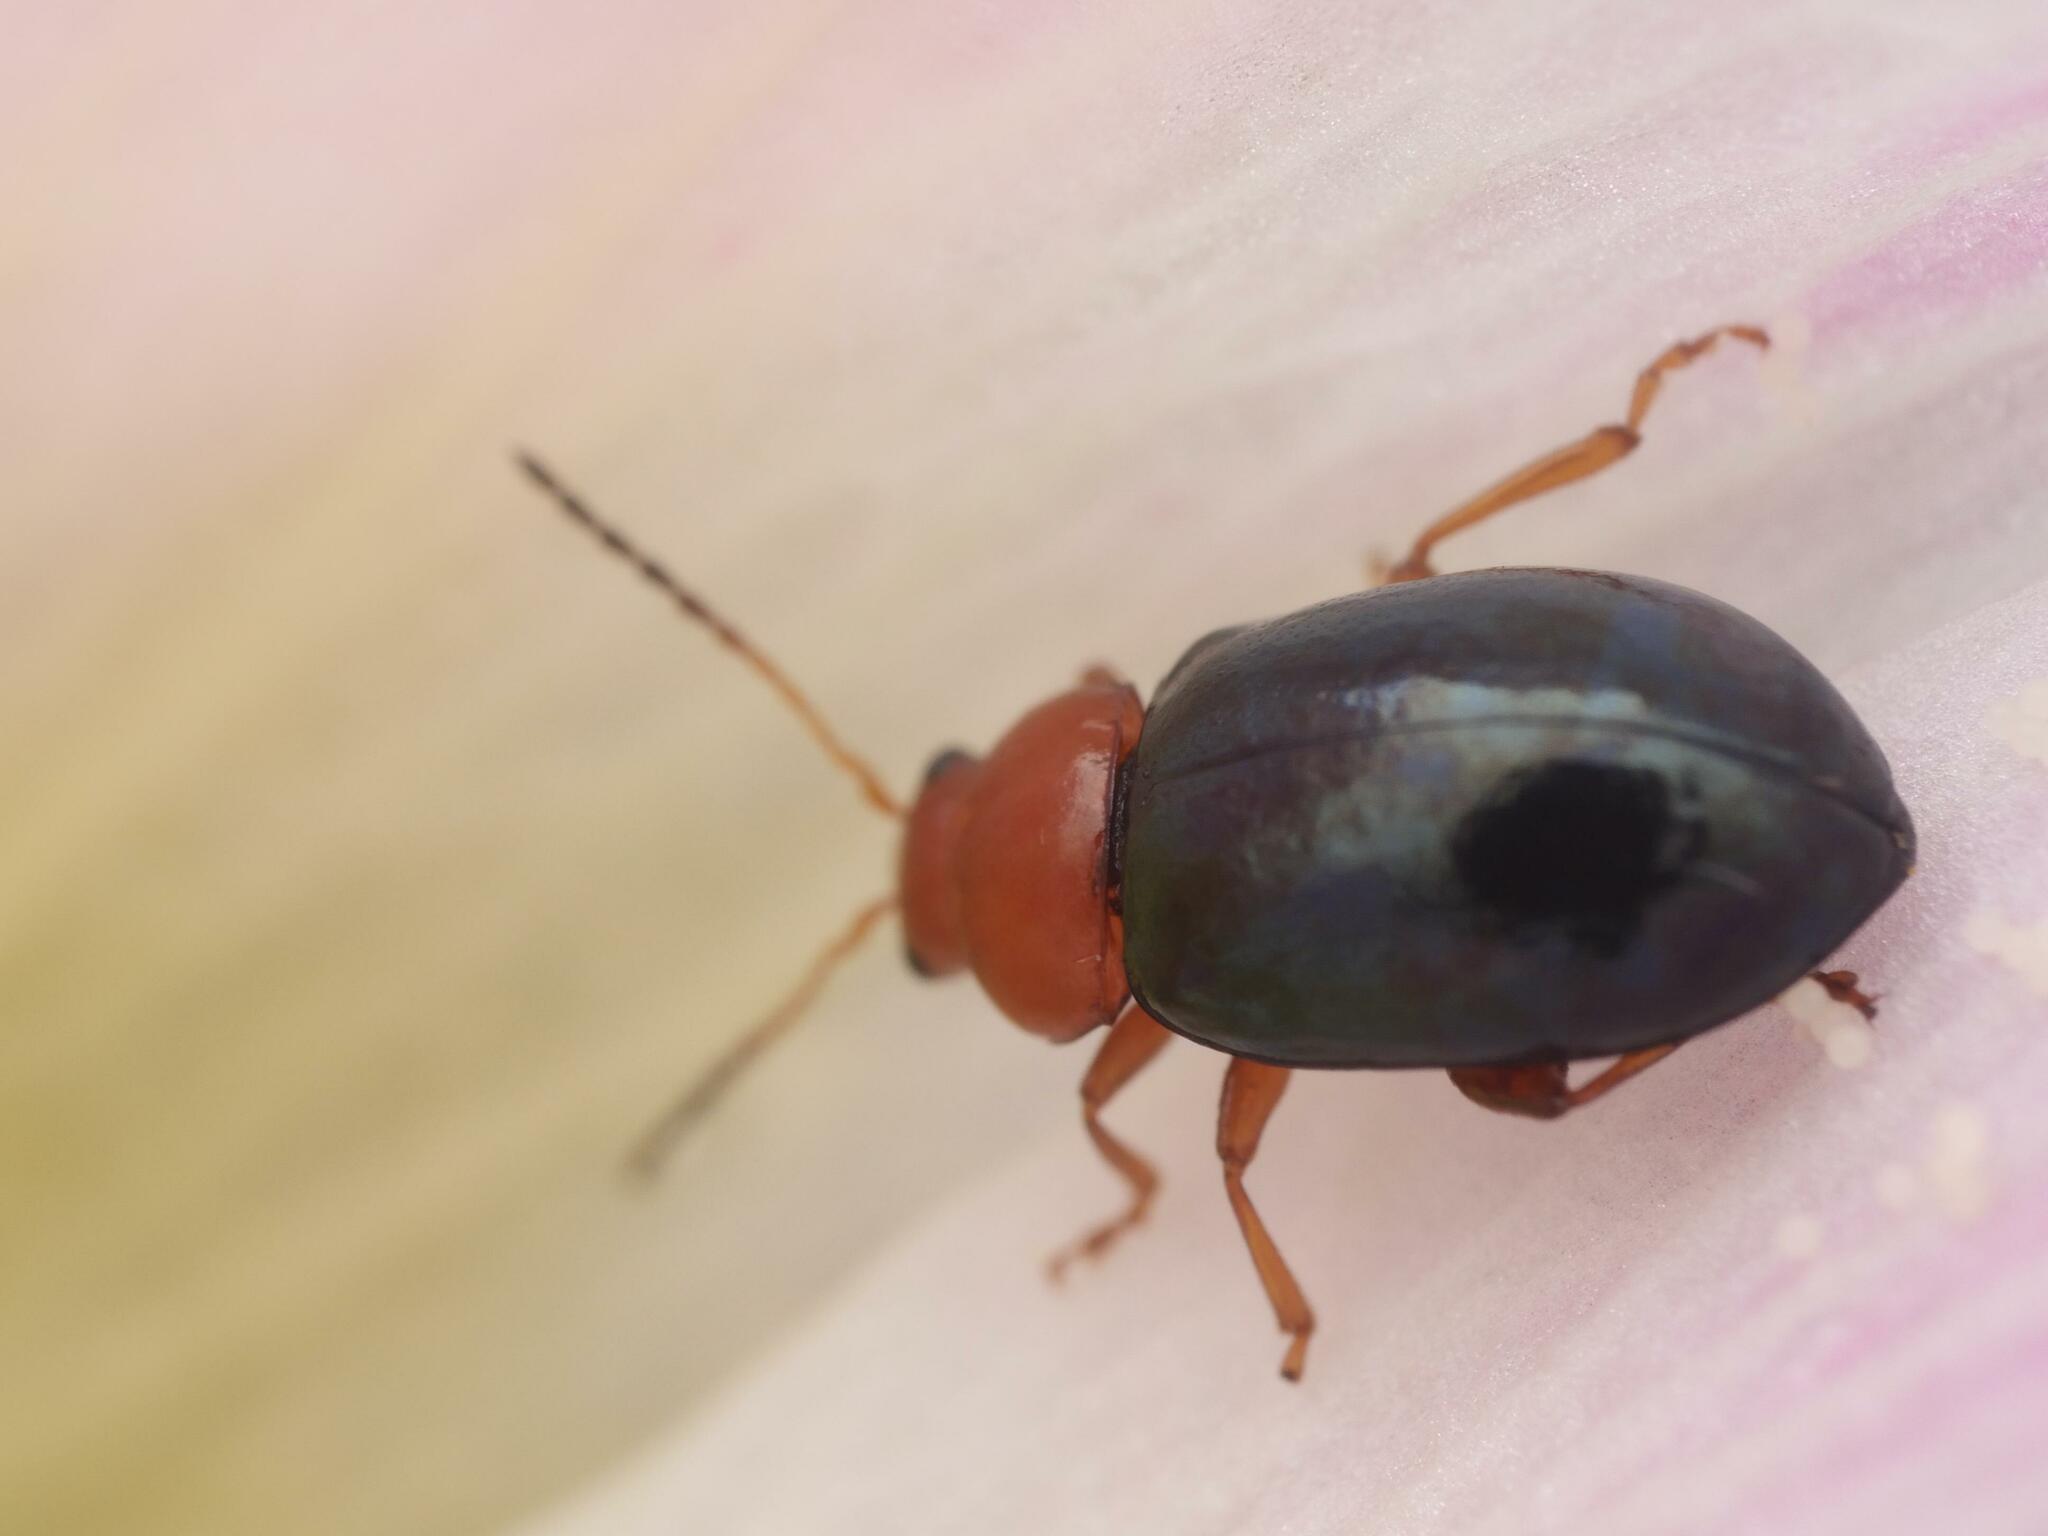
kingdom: Animalia
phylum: Arthropoda
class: Insecta
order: Coleoptera
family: Chrysomelidae
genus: Podagrica
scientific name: Podagrica fuscicornis
